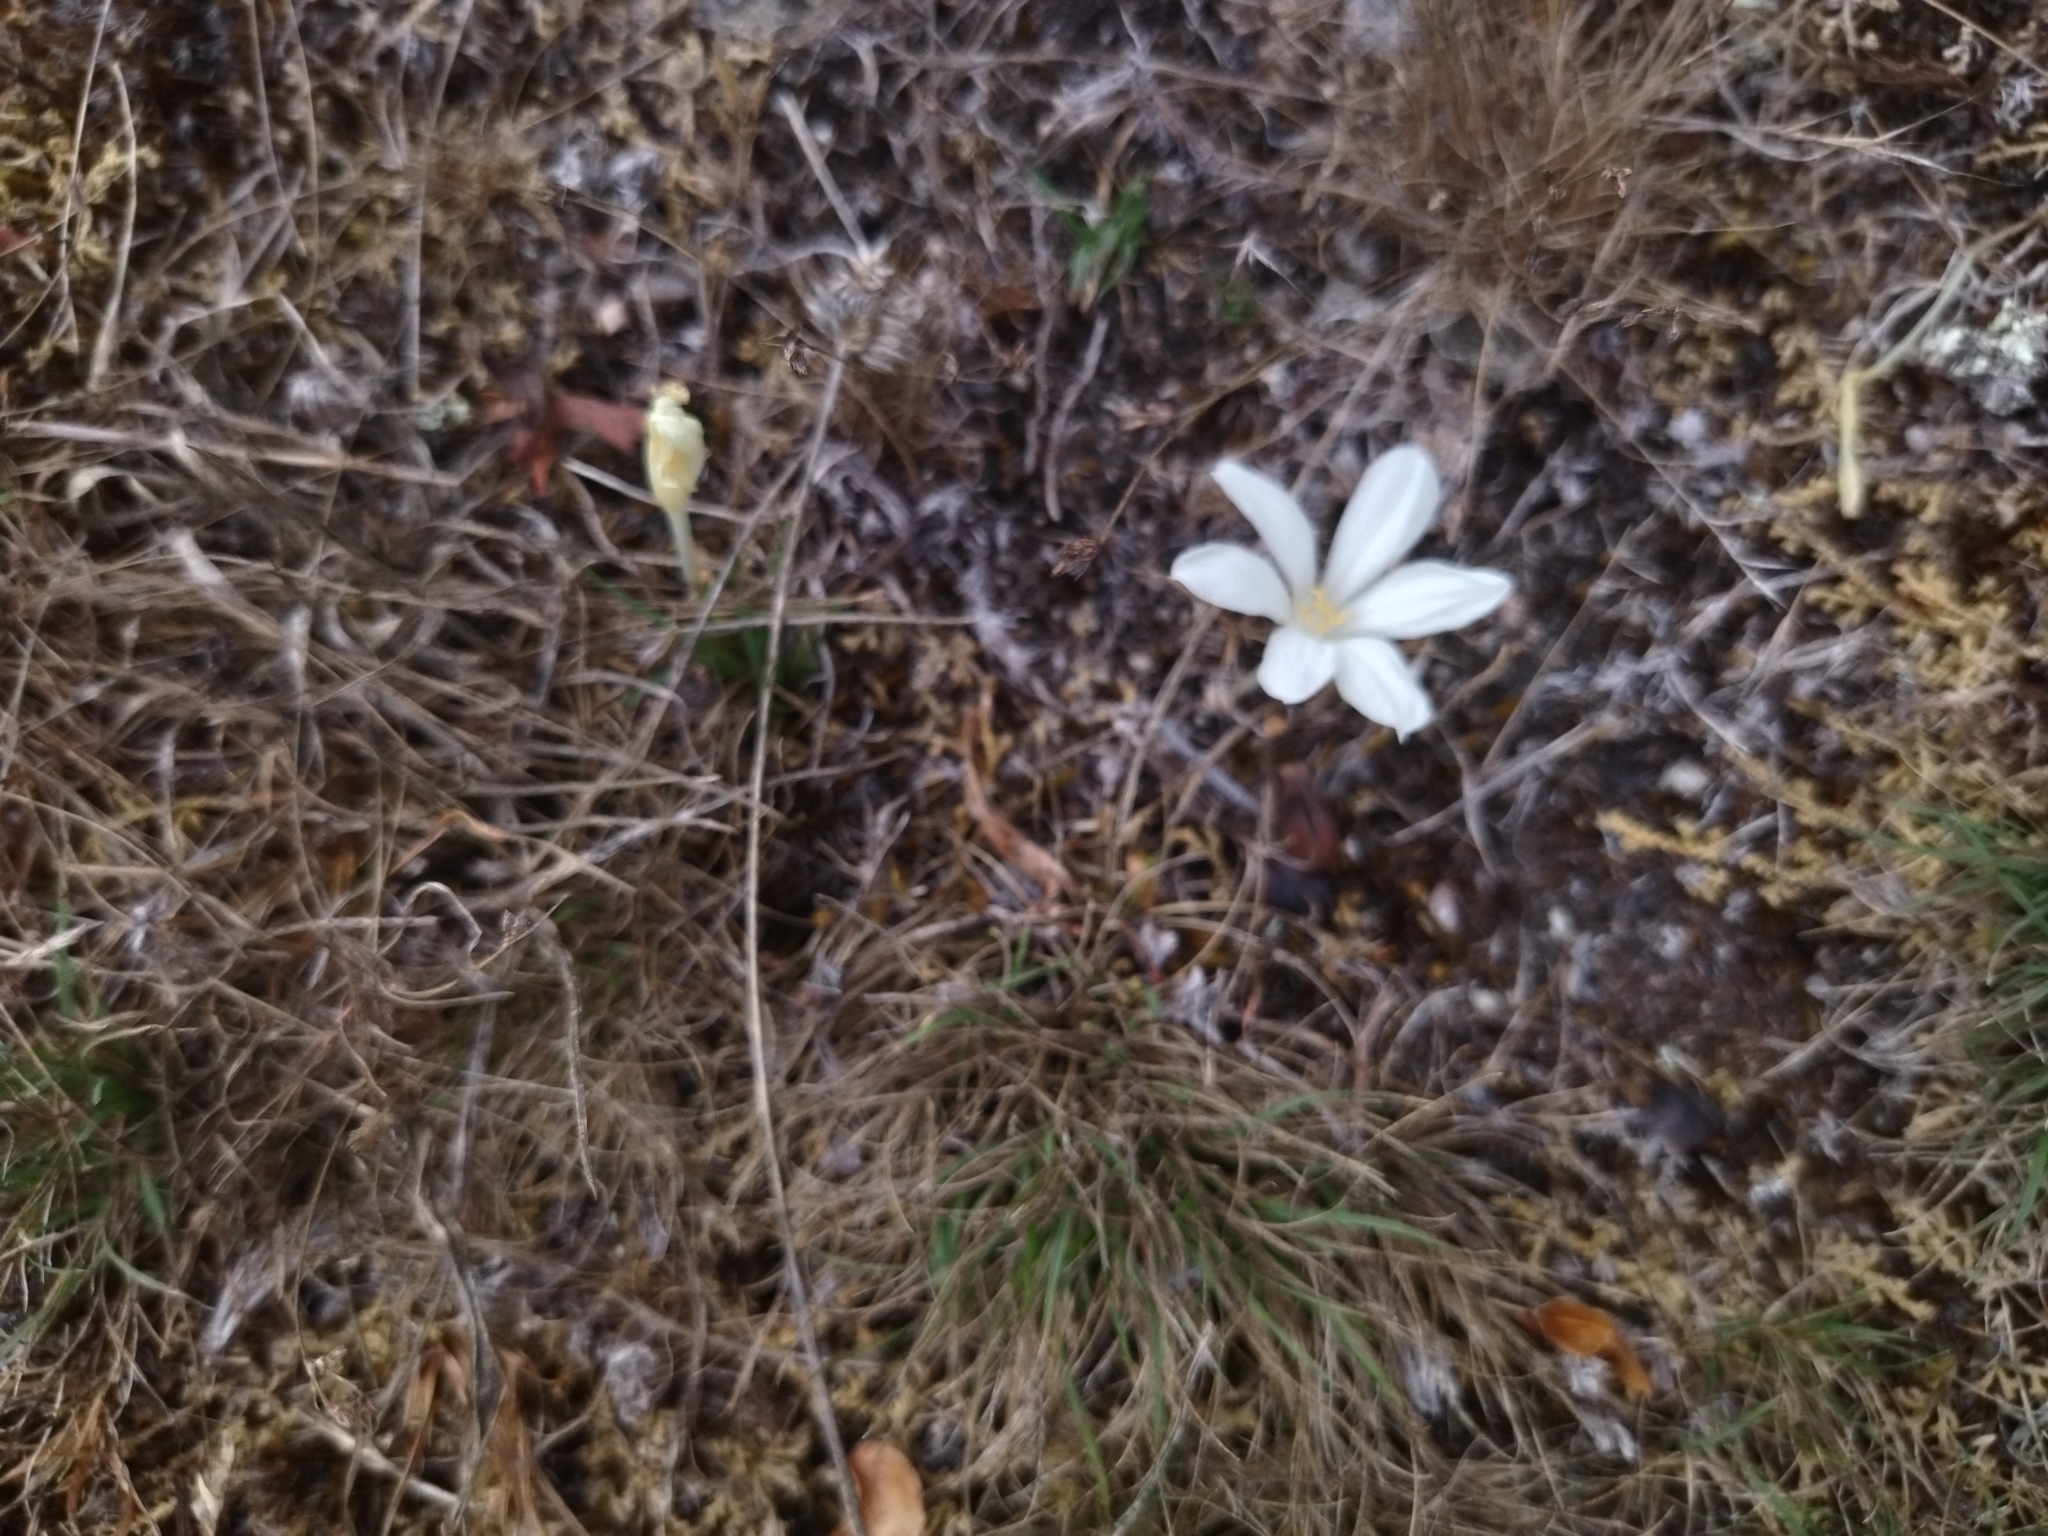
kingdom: Plantae
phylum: Tracheophyta
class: Liliopsida
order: Asparagales
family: Amaryllidaceae
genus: Zephyranthes
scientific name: Zephyranthes americana
